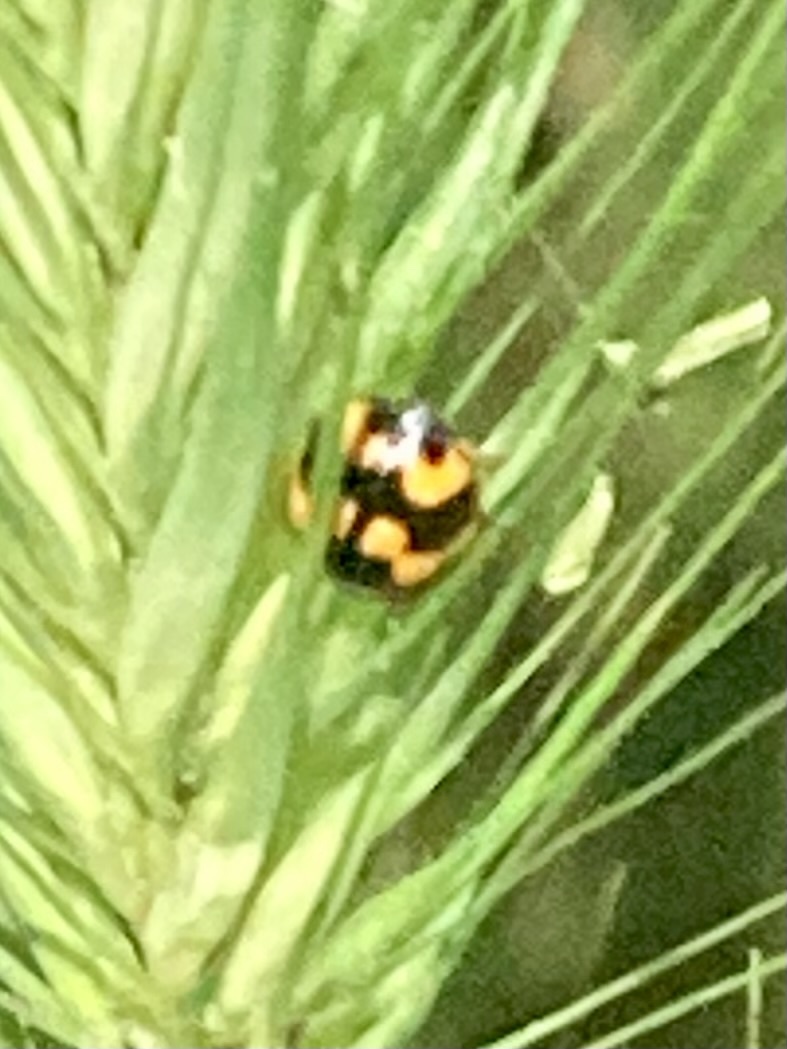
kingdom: Animalia
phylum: Arthropoda
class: Insecta
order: Coleoptera
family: Coccinellidae
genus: Propylaea
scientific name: Propylaea quatuordecimpunctata
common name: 14-spotted ladybird beetle
